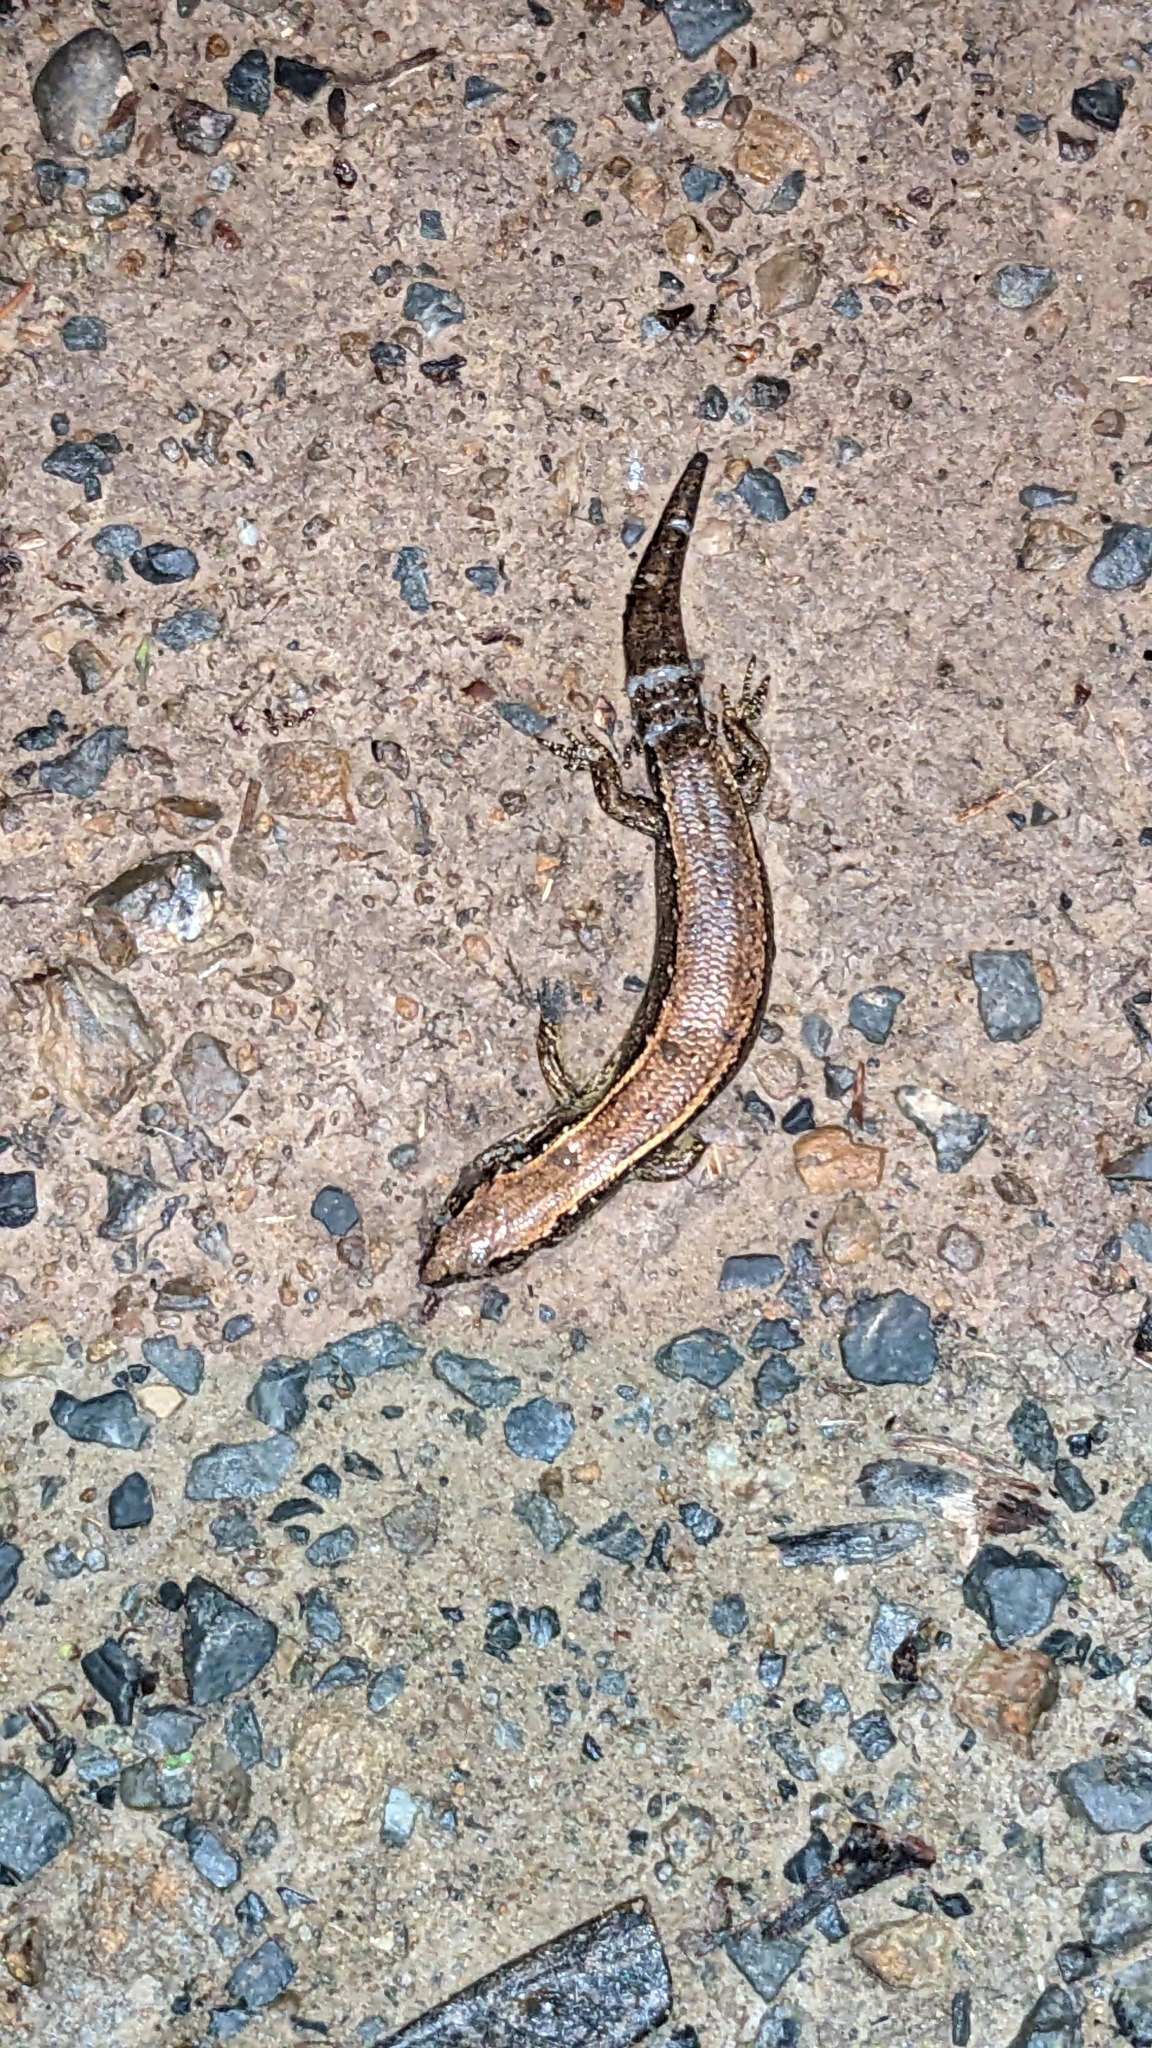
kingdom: Animalia
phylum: Chordata
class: Squamata
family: Scincidae
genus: Oligosoma
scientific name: Oligosoma aeneum
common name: Copper skink
